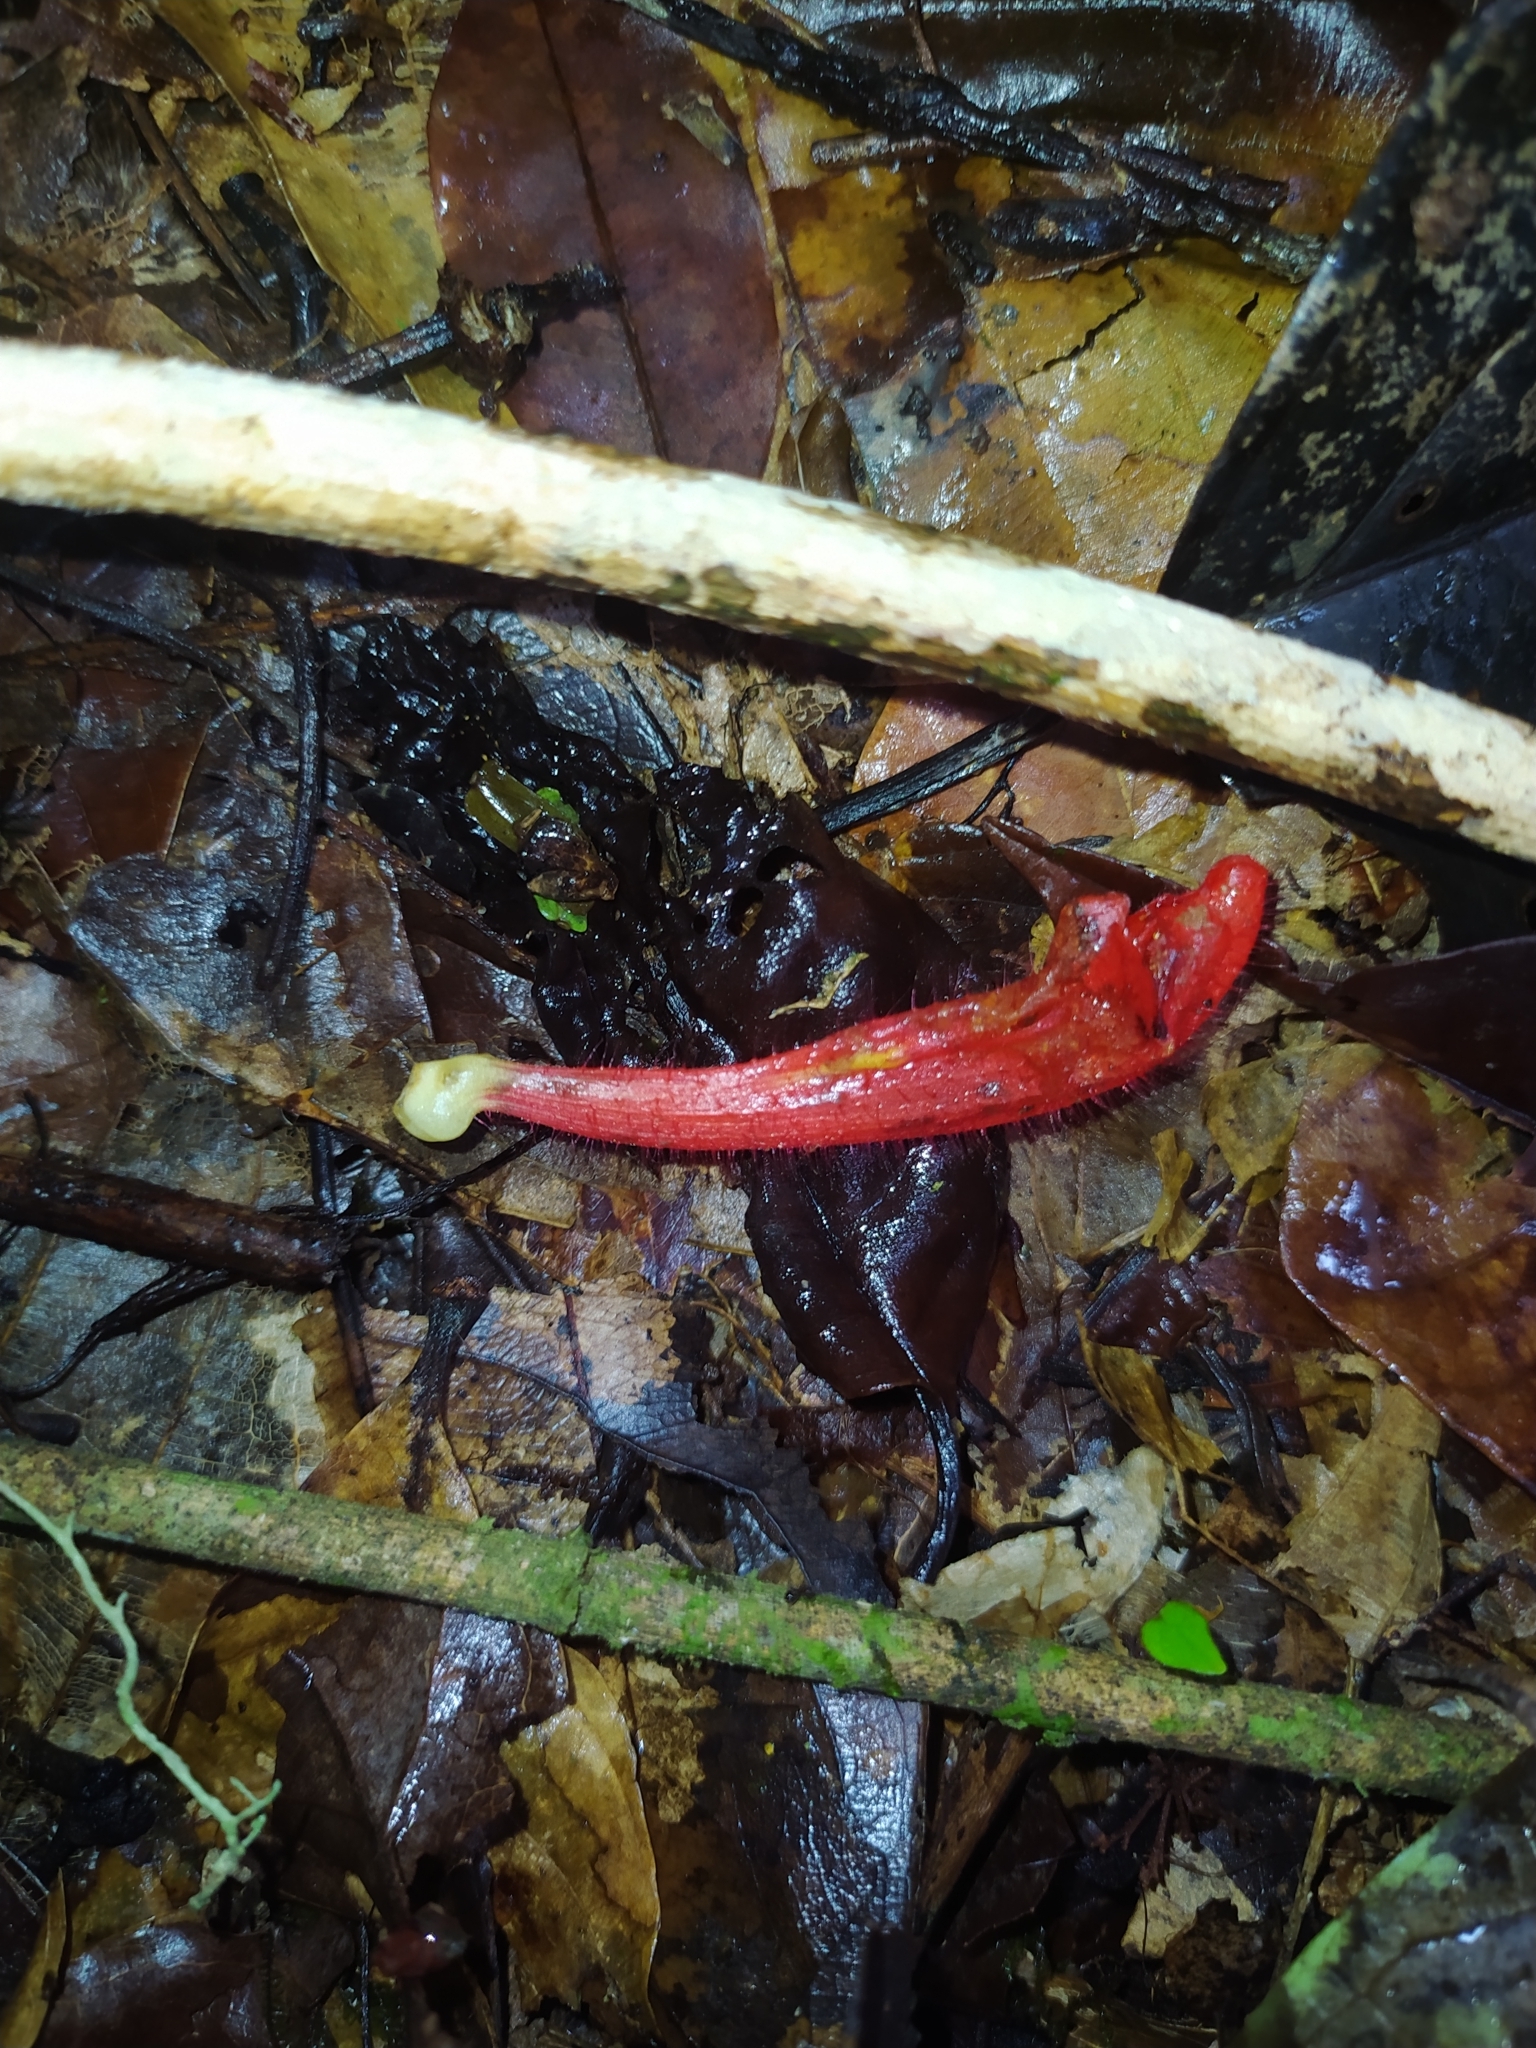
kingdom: Plantae
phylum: Tracheophyta
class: Magnoliopsida
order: Lamiales
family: Gesneriaceae
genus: Columnea
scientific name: Columnea oerstediana
